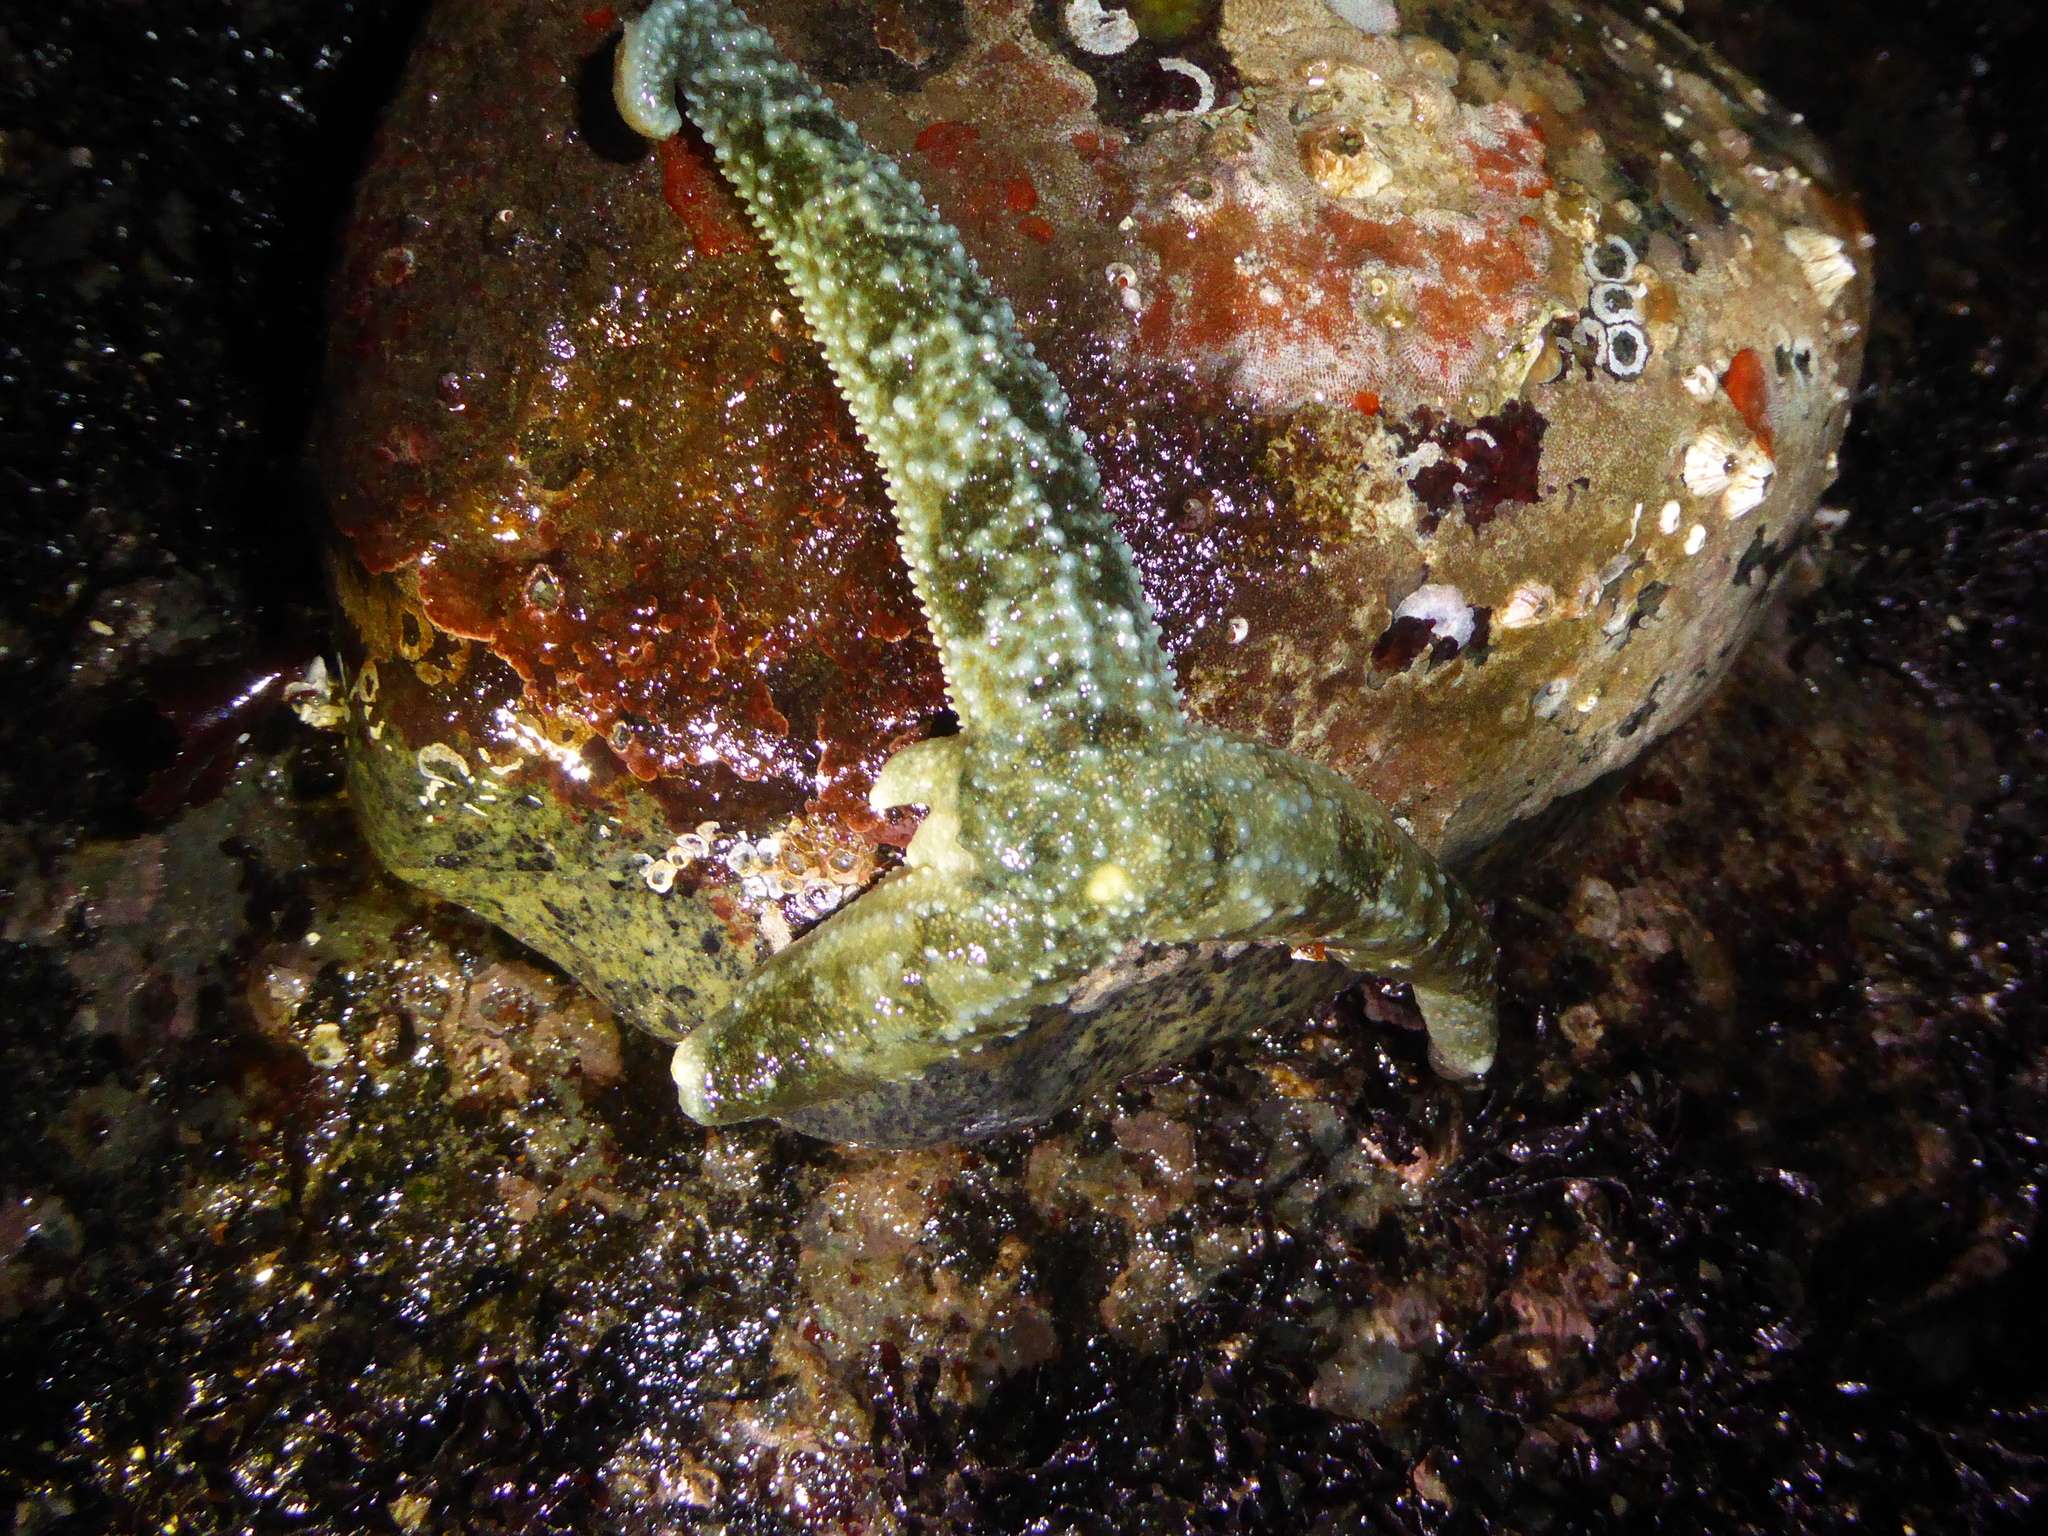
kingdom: Animalia
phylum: Echinodermata
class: Asteroidea
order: Forcipulatida
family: Asteriidae
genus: Evasterias
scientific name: Evasterias troschelii
